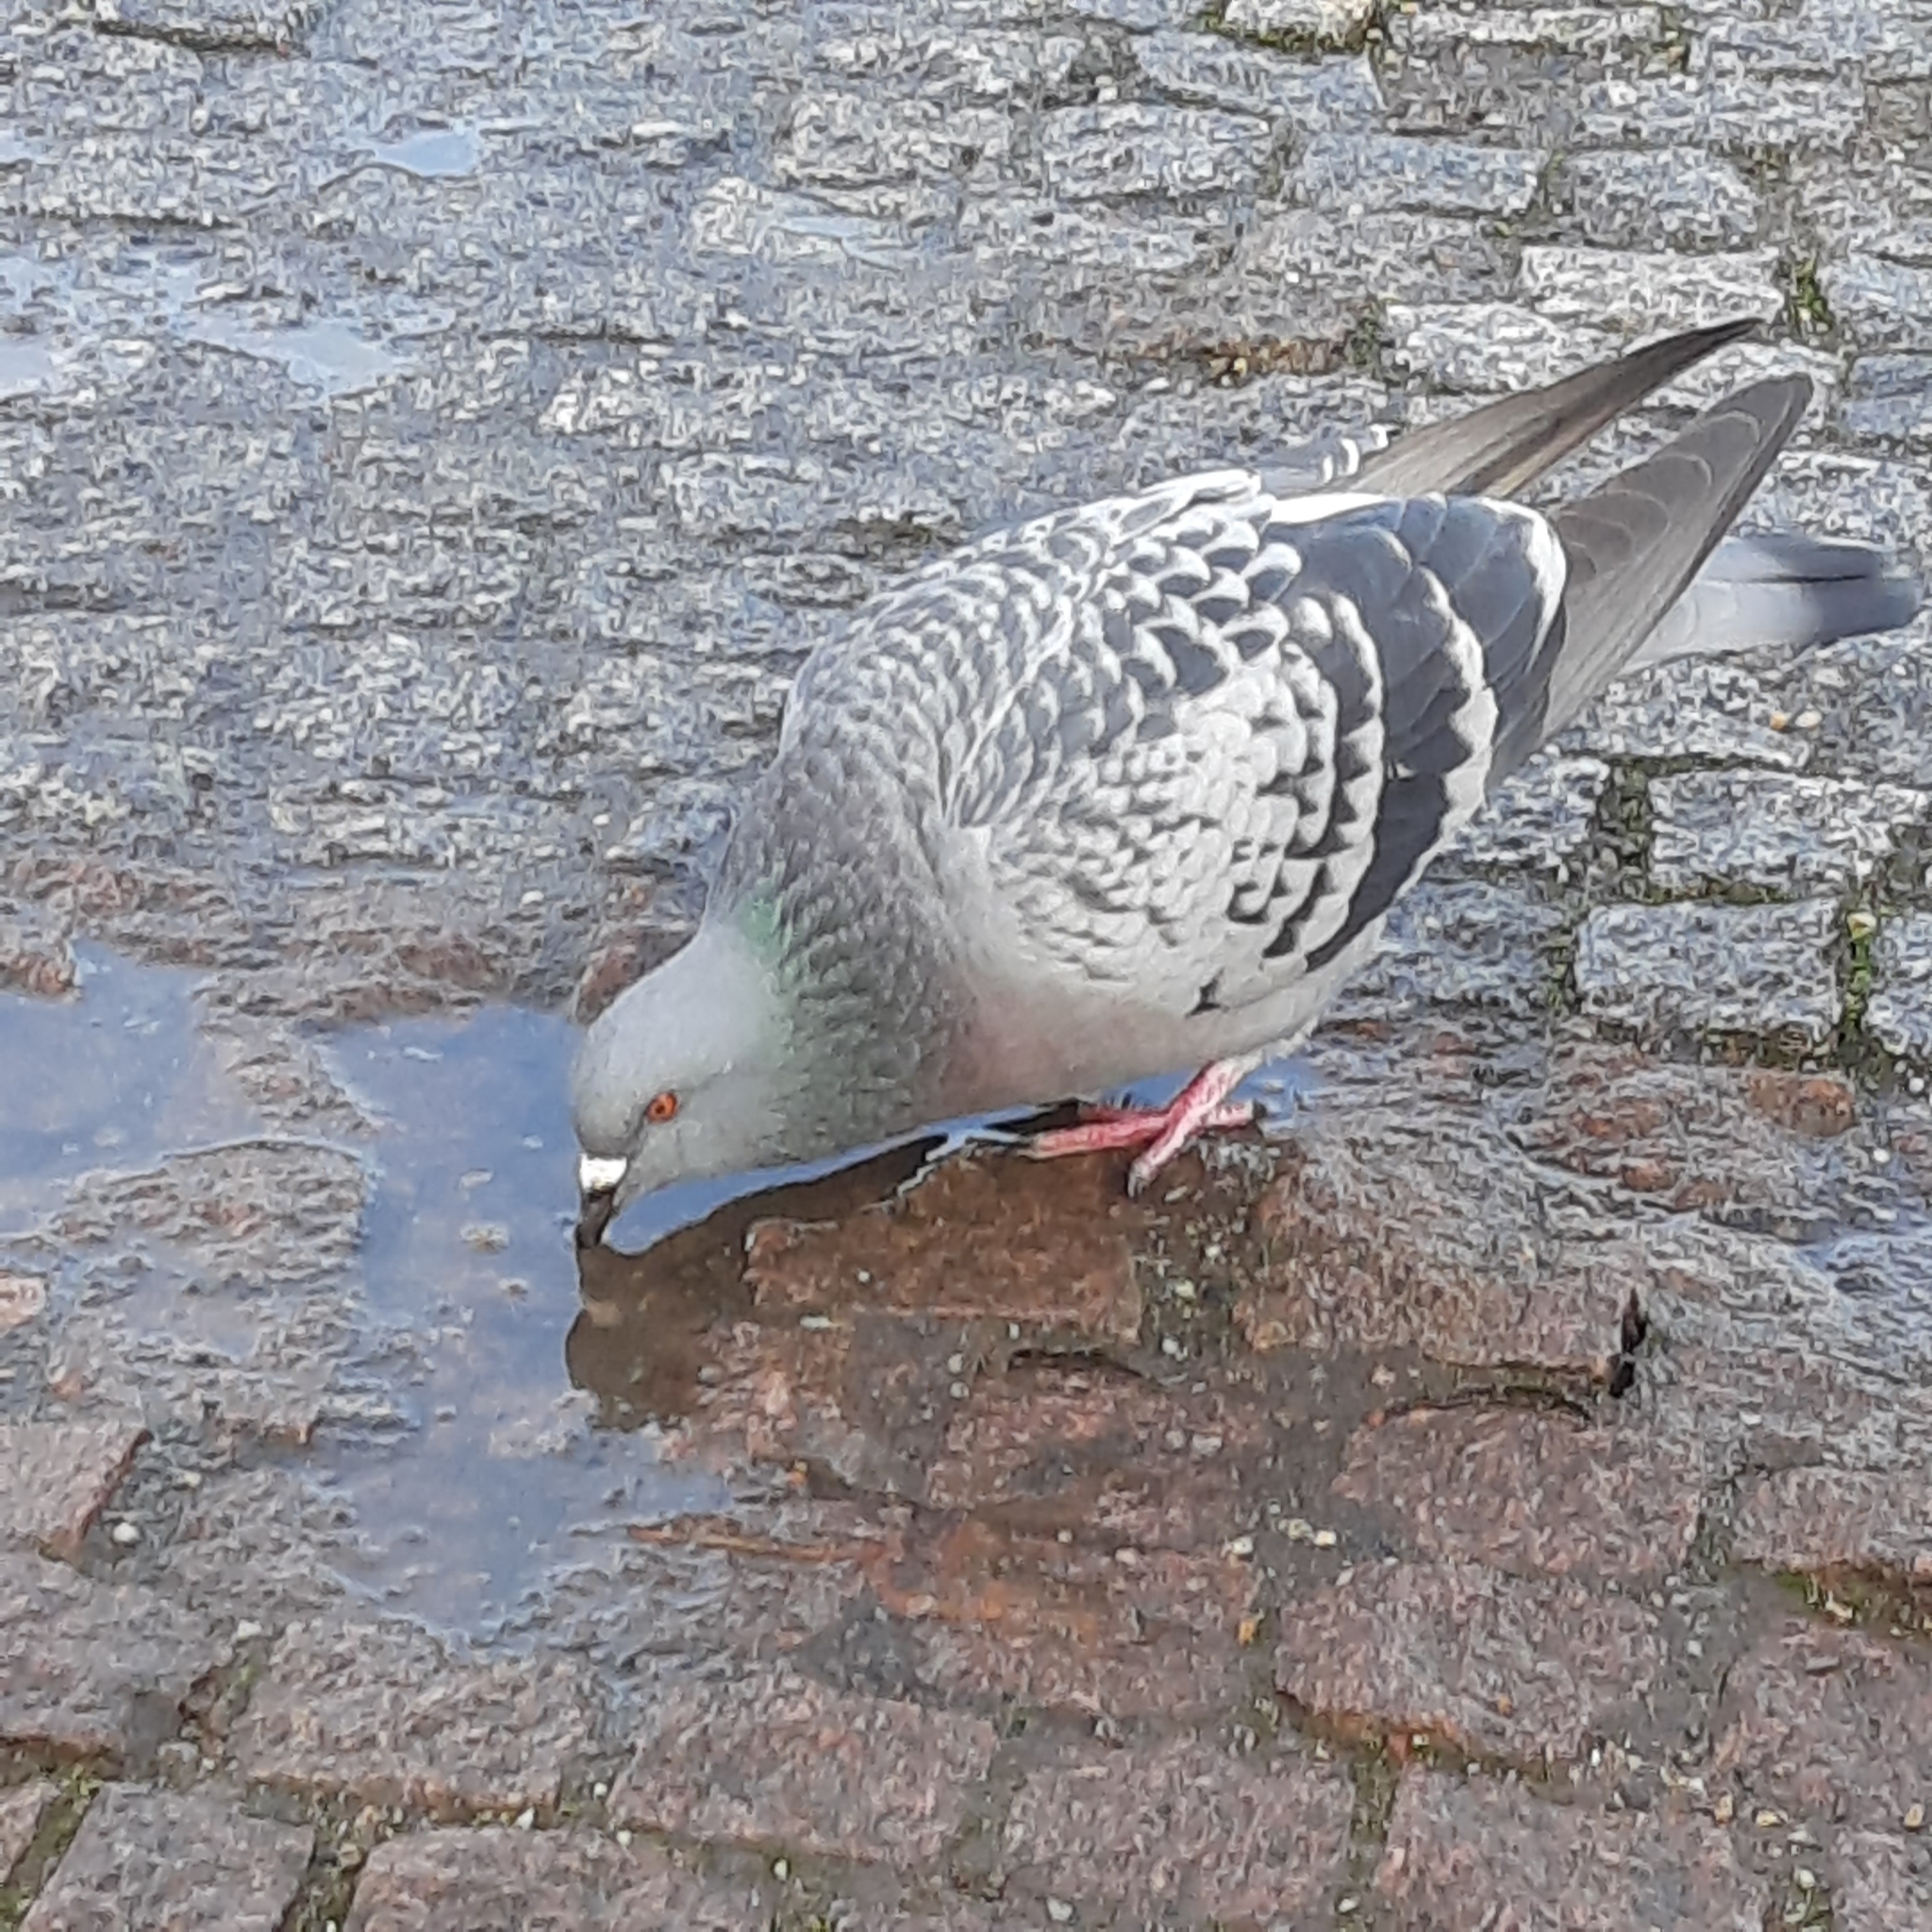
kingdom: Animalia
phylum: Chordata
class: Aves
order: Columbiformes
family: Columbidae
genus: Columba
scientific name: Columba livia
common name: Rock pigeon
